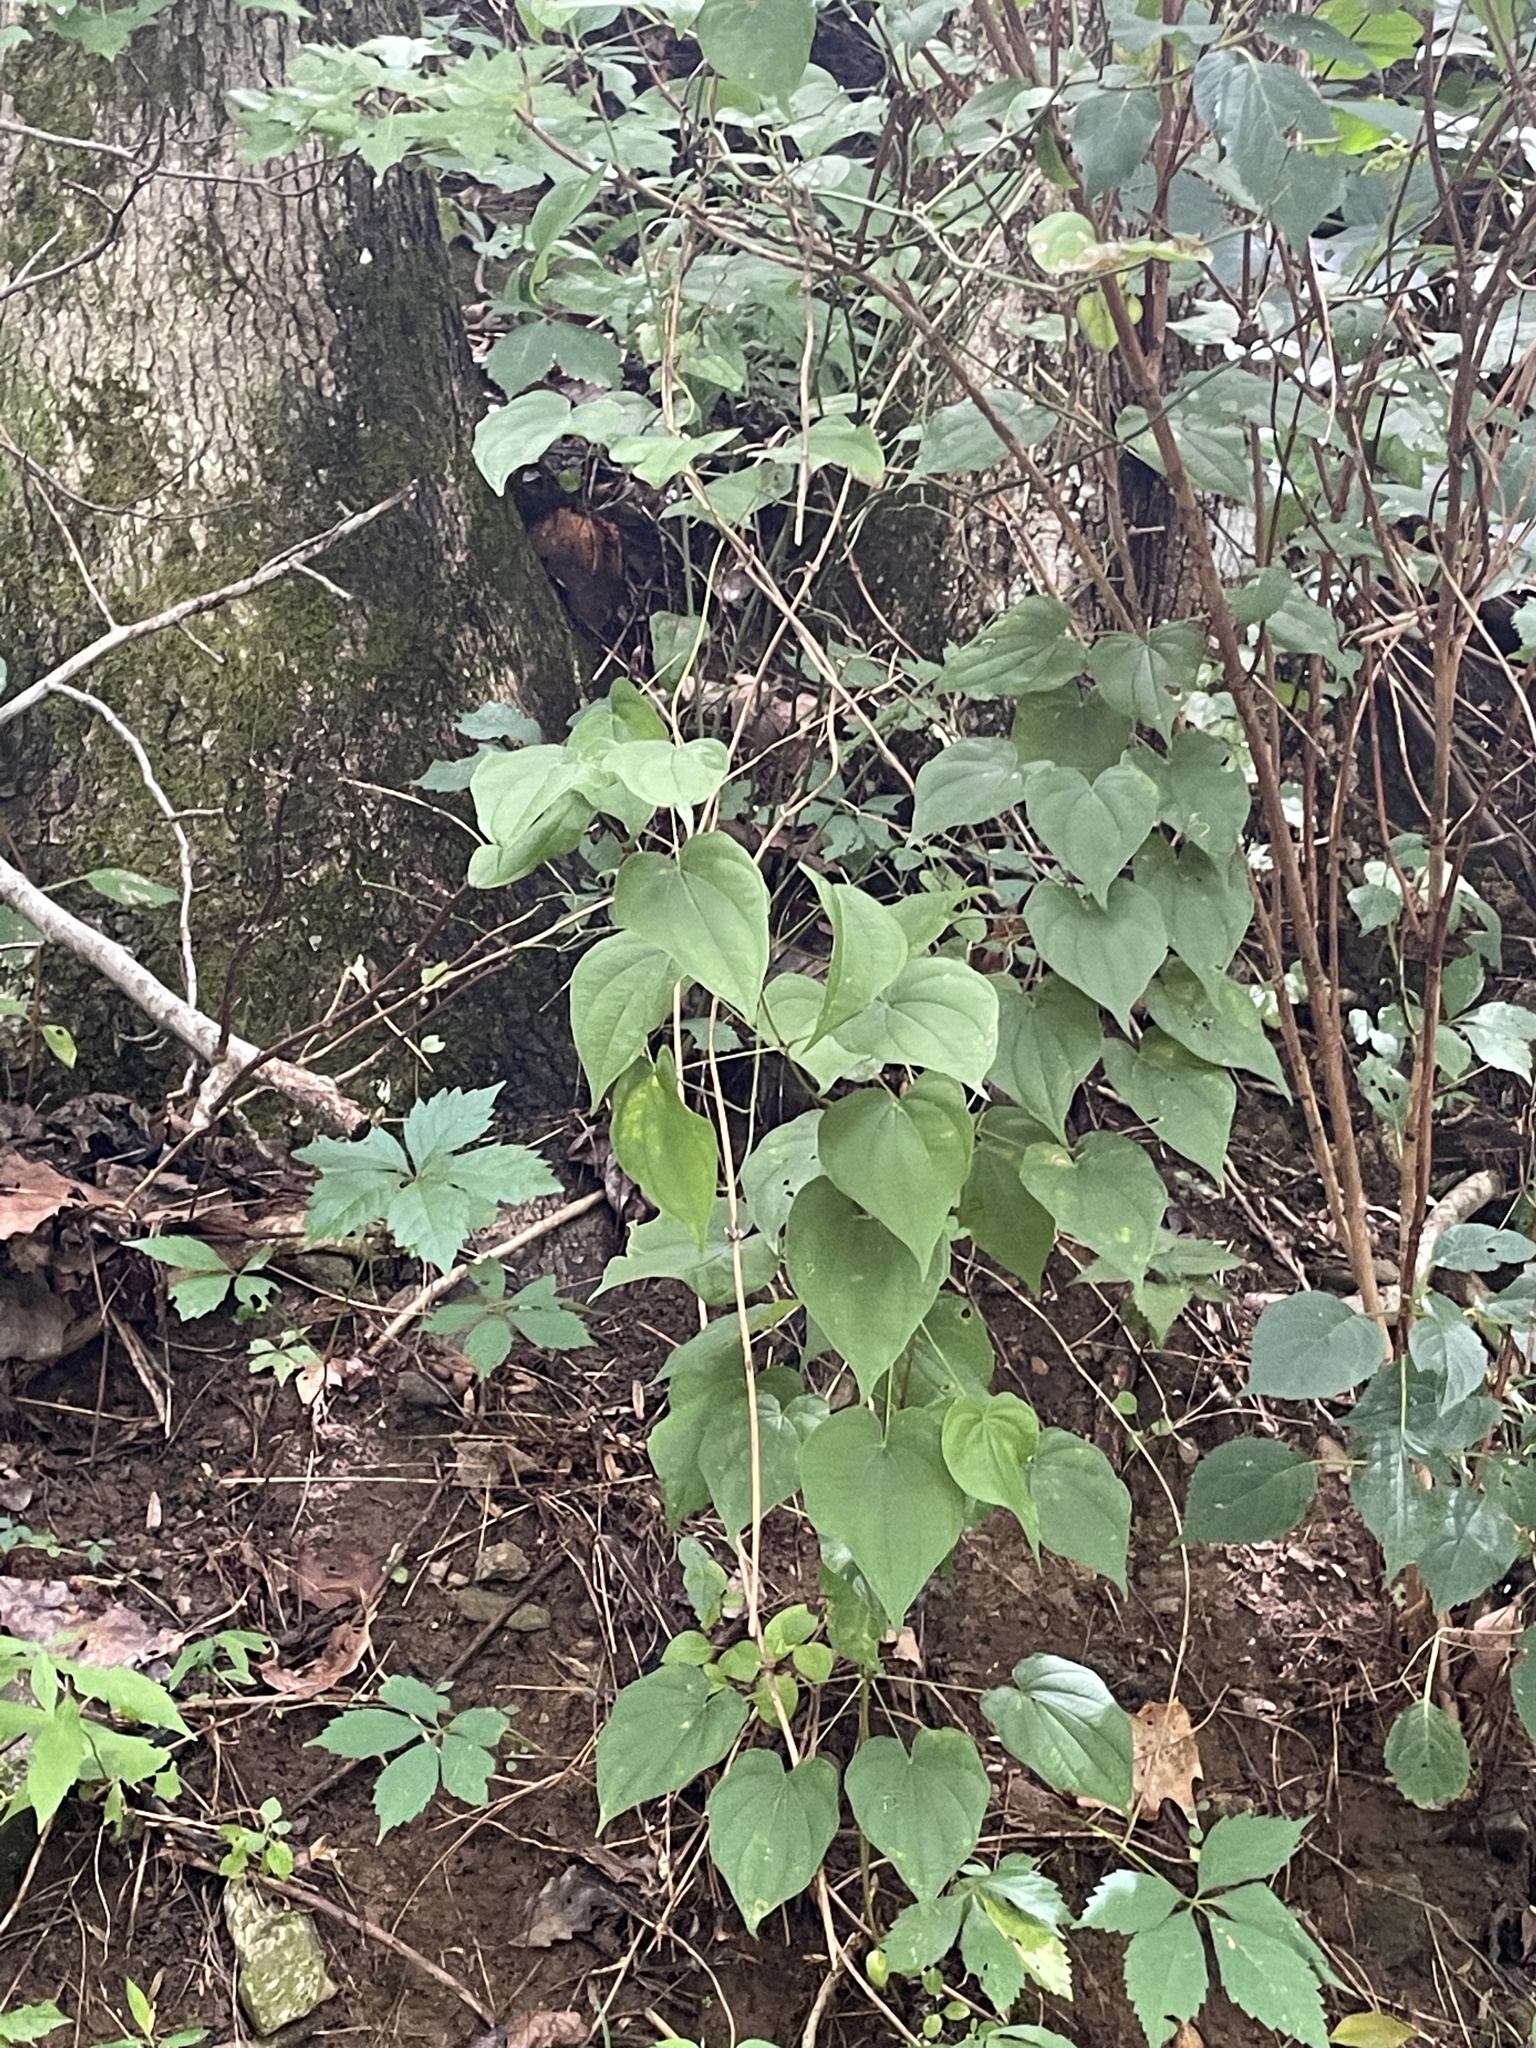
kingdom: Plantae
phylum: Tracheophyta
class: Liliopsida
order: Dioscoreales
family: Dioscoreaceae
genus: Dioscorea
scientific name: Dioscorea villosa
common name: Wild yam
